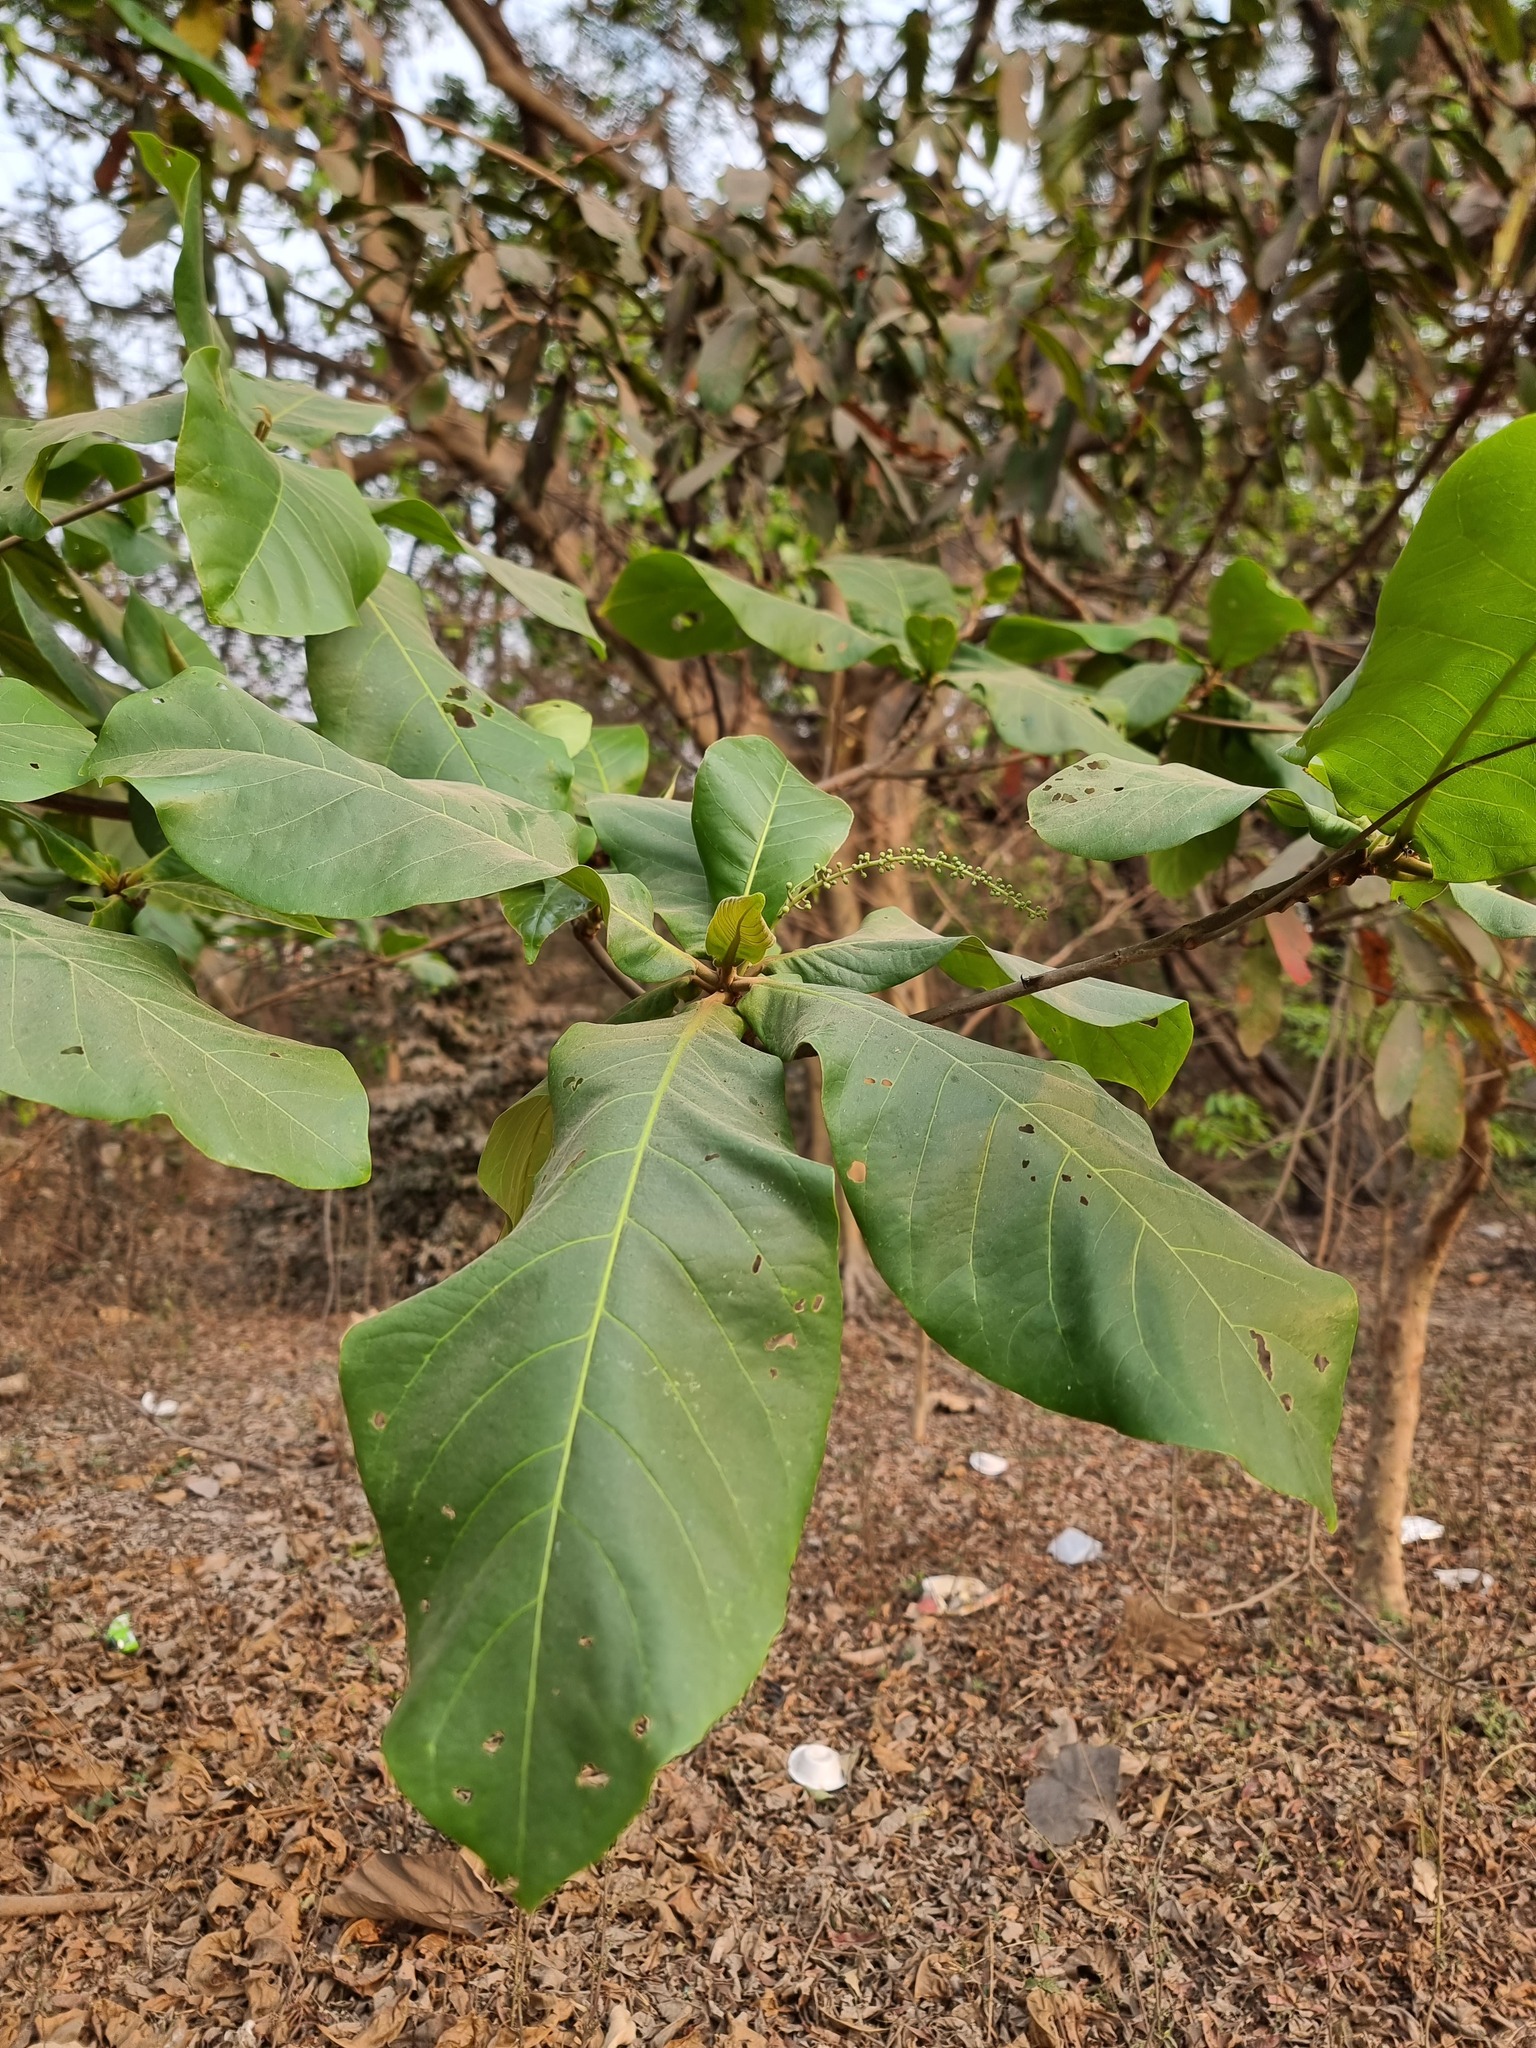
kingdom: Plantae
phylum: Tracheophyta
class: Magnoliopsida
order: Myrtales
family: Combretaceae
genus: Terminalia
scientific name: Terminalia catappa
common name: Tropical almond
